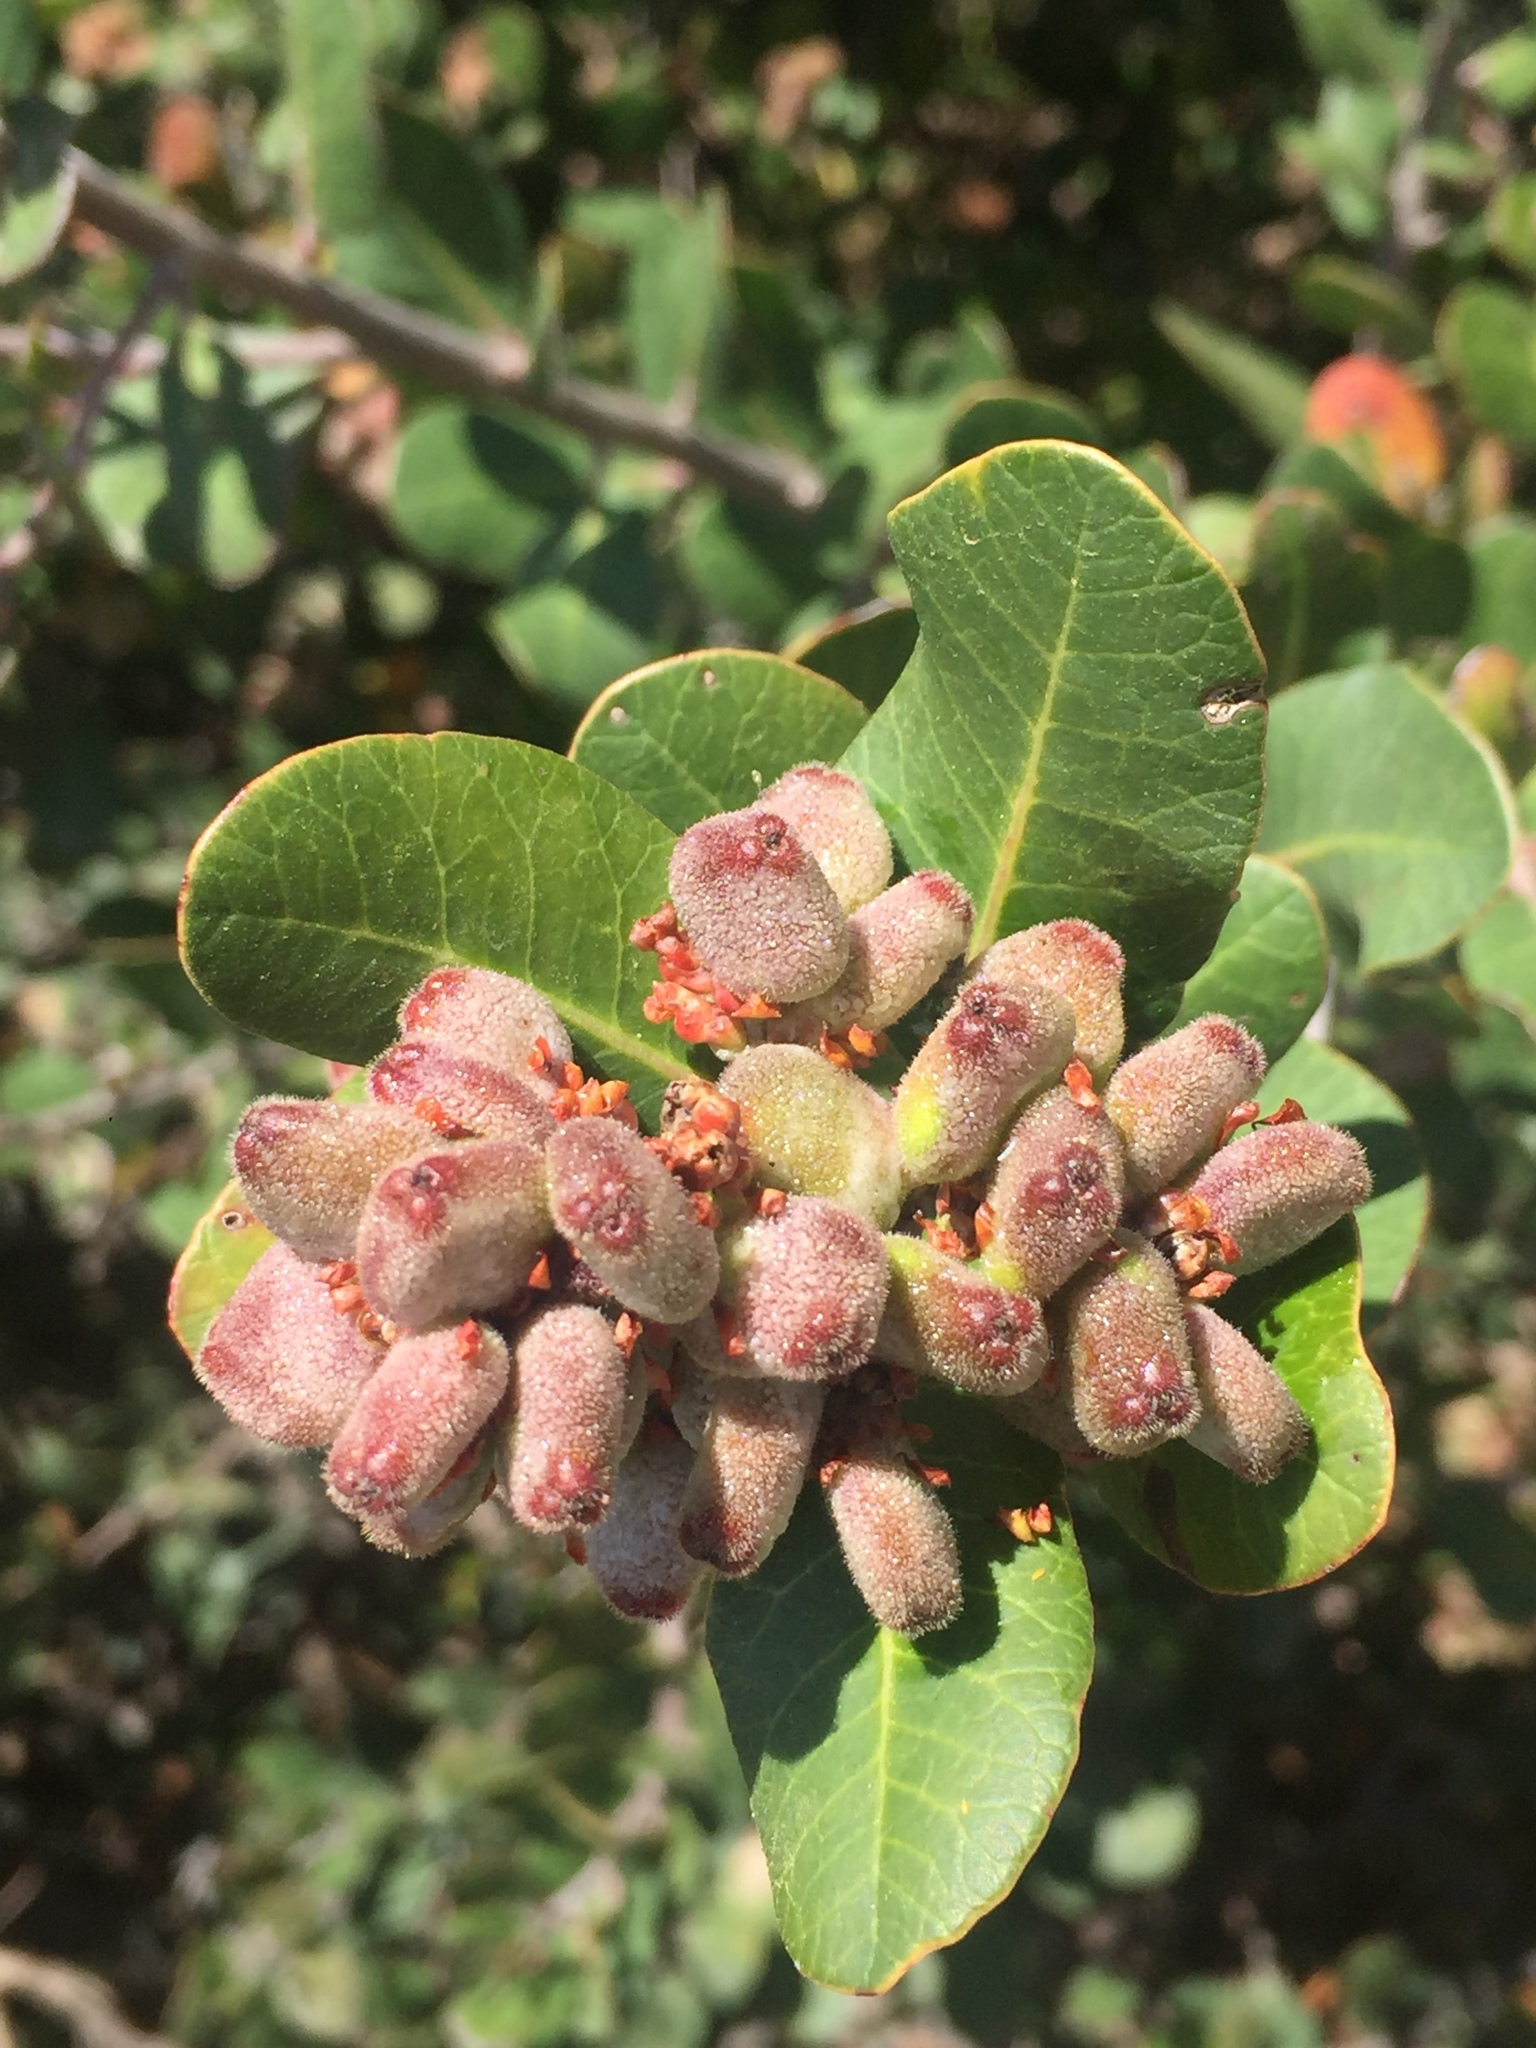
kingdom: Plantae
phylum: Tracheophyta
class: Magnoliopsida
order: Sapindales
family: Anacardiaceae
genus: Rhus
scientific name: Rhus integrifolia
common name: Lemonade sumac
